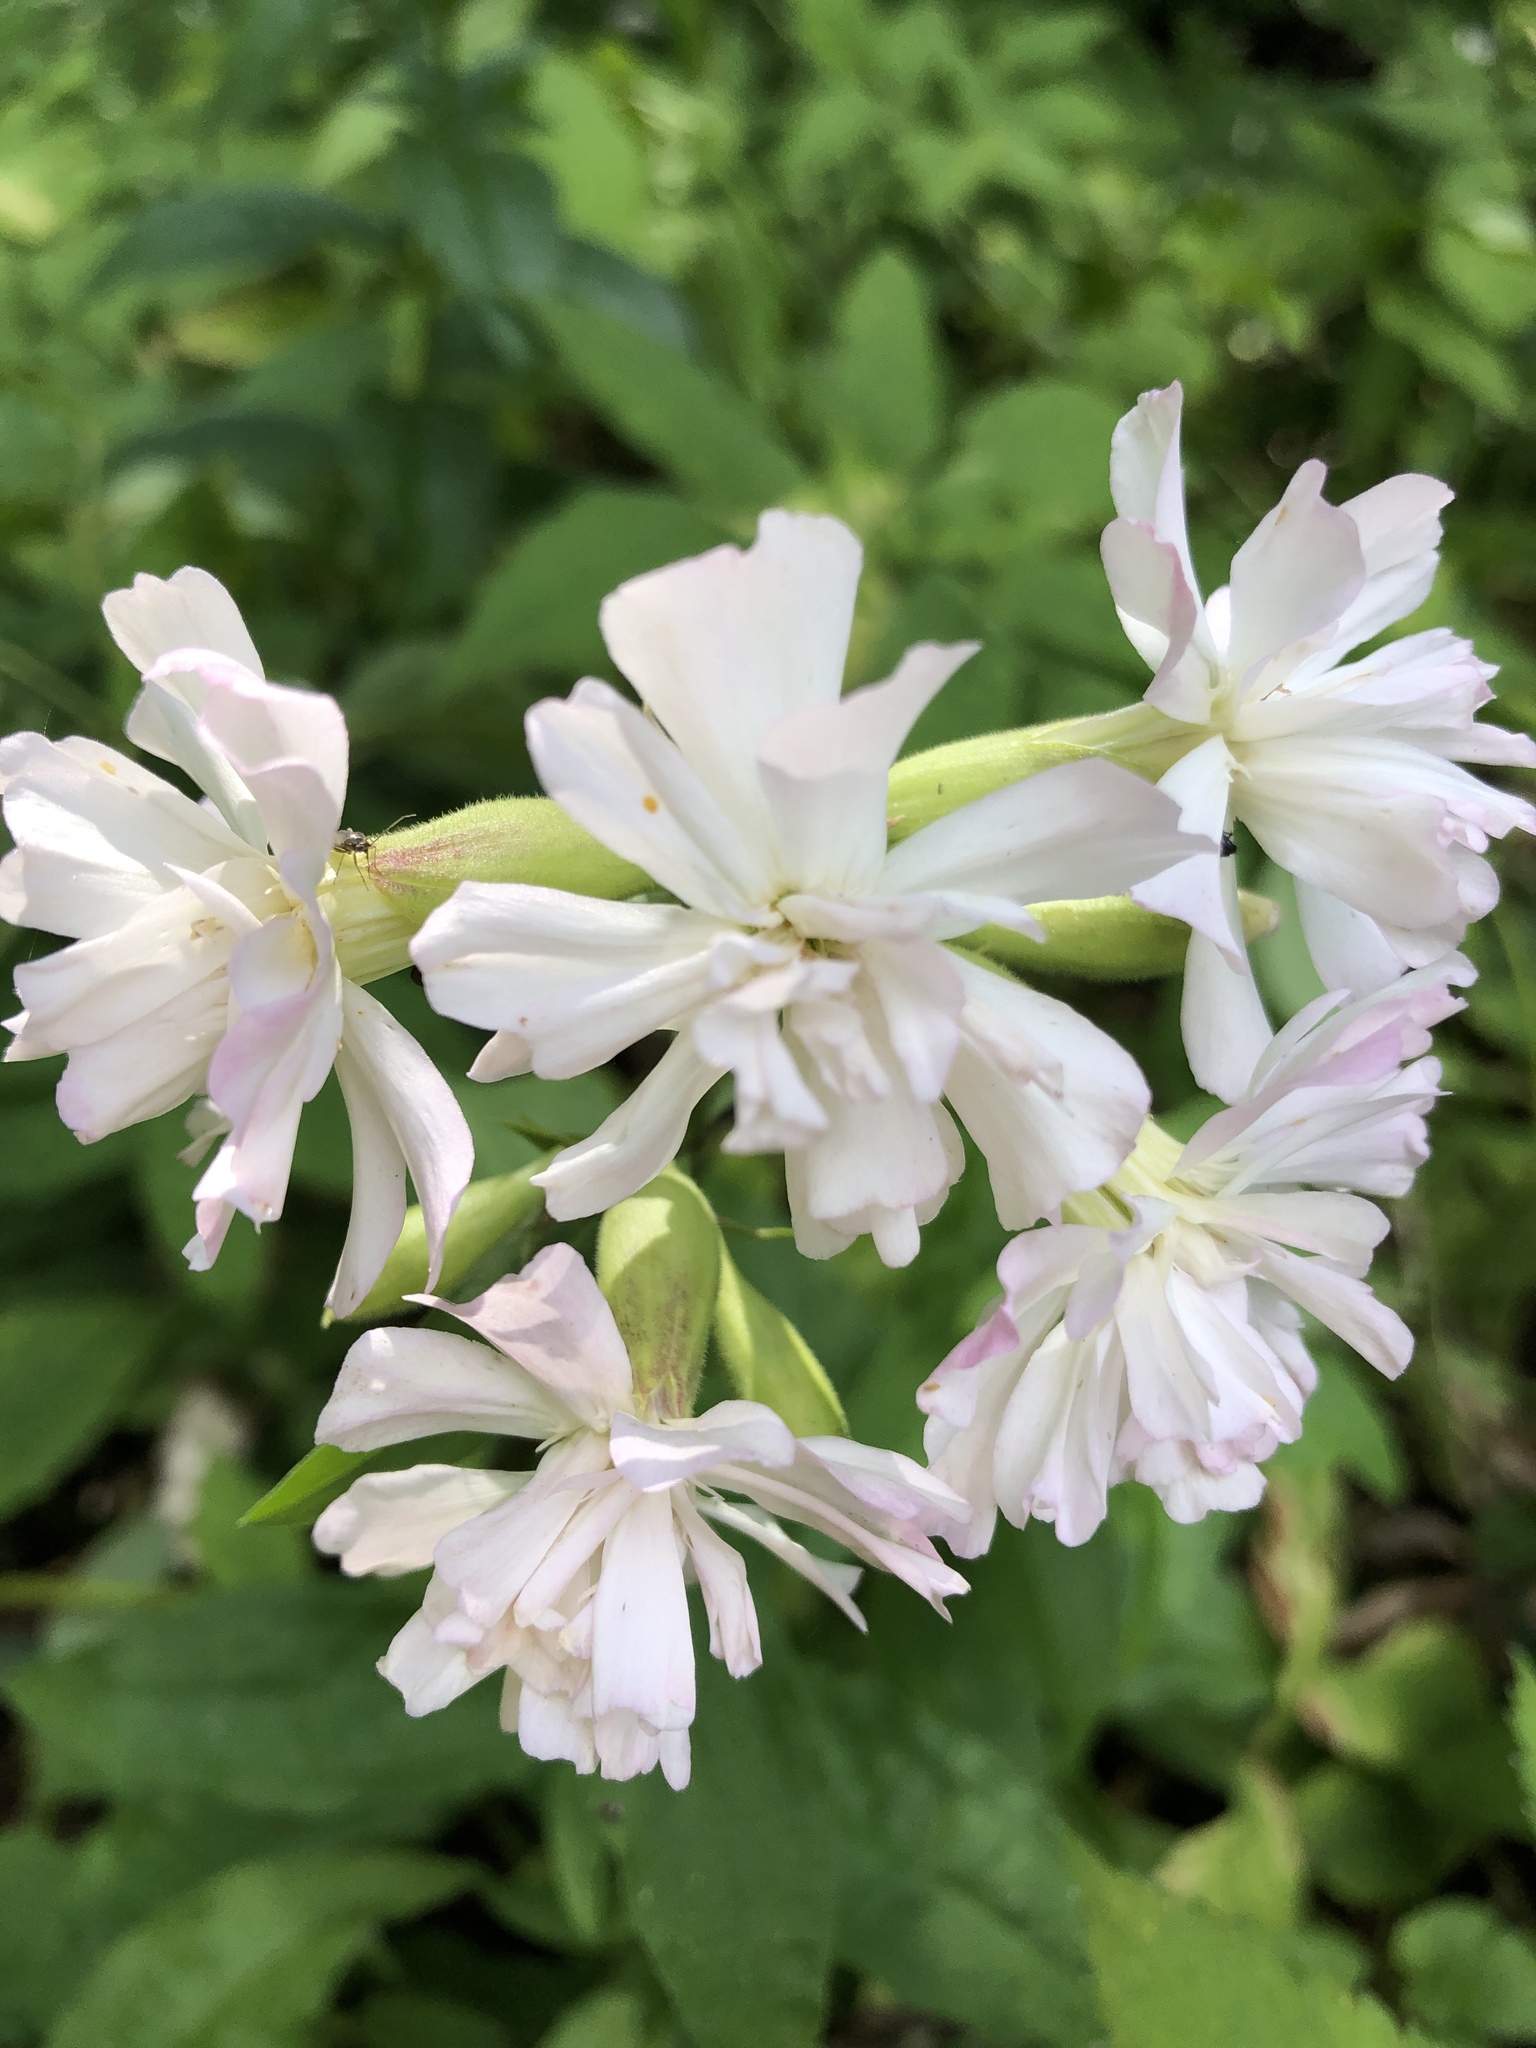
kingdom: Plantae
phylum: Tracheophyta
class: Magnoliopsida
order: Caryophyllales
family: Caryophyllaceae
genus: Saponaria
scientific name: Saponaria officinalis
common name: Soapwort
